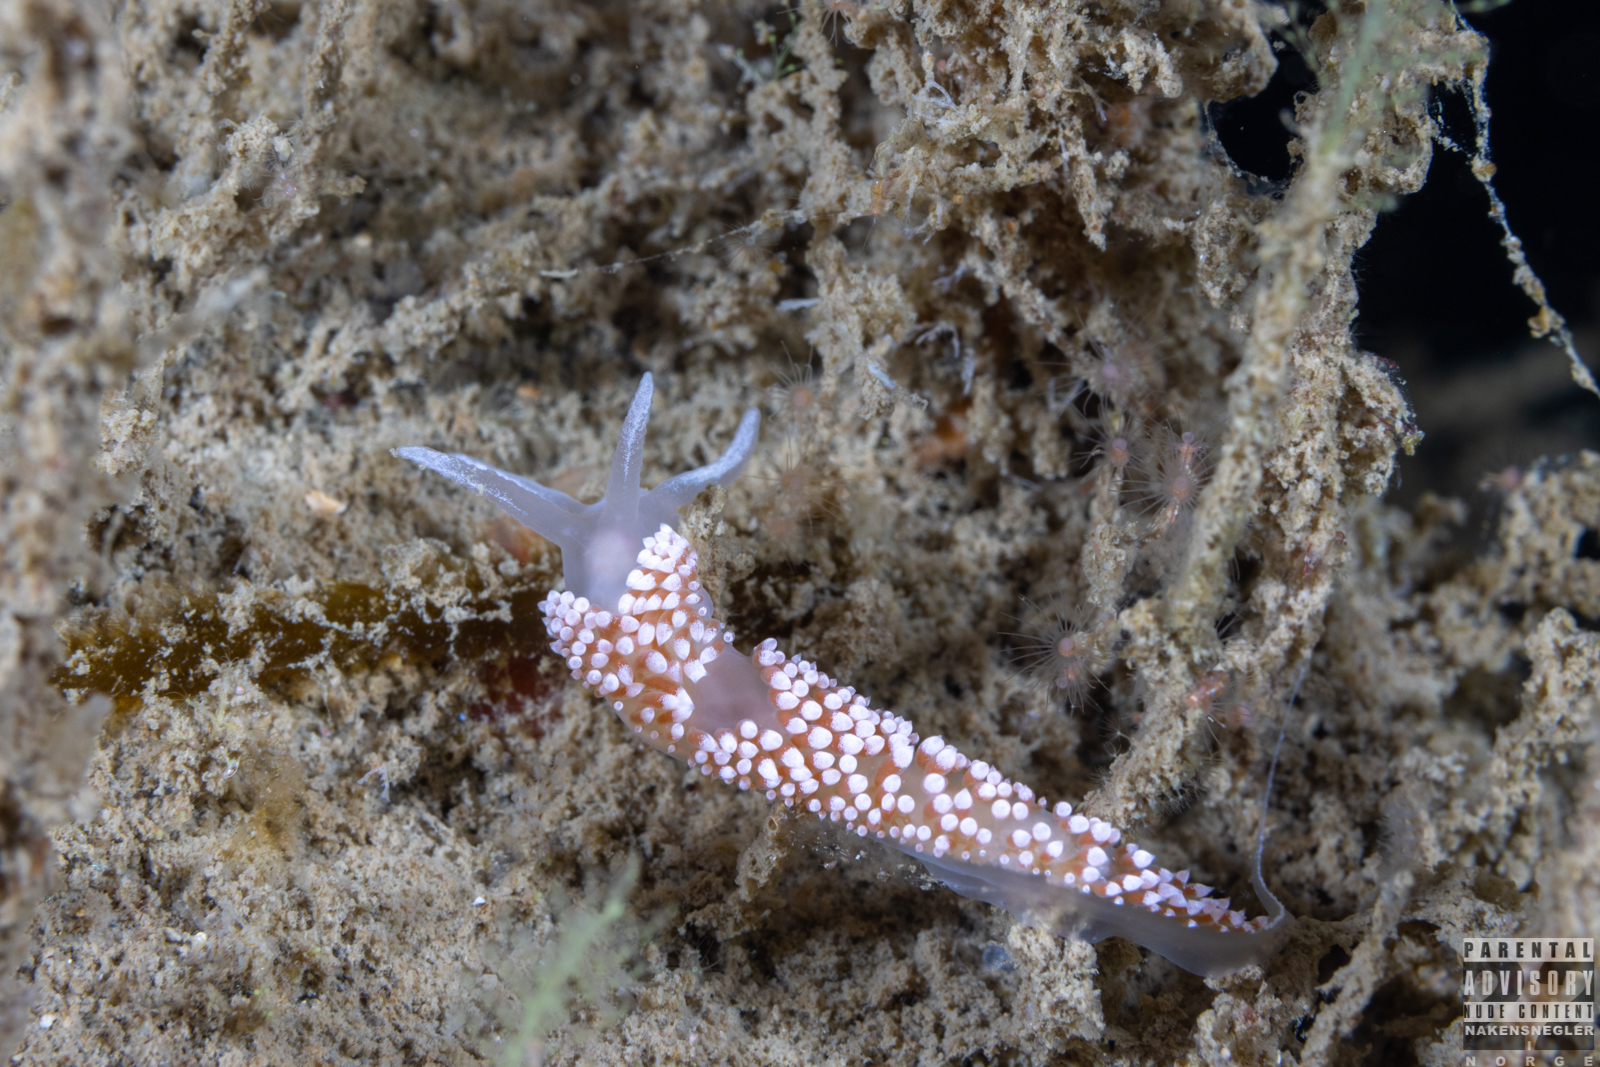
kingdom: Animalia
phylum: Mollusca
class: Gastropoda
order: Nudibranchia
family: Coryphellidae
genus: Coryphella
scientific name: Coryphella verrucosa
